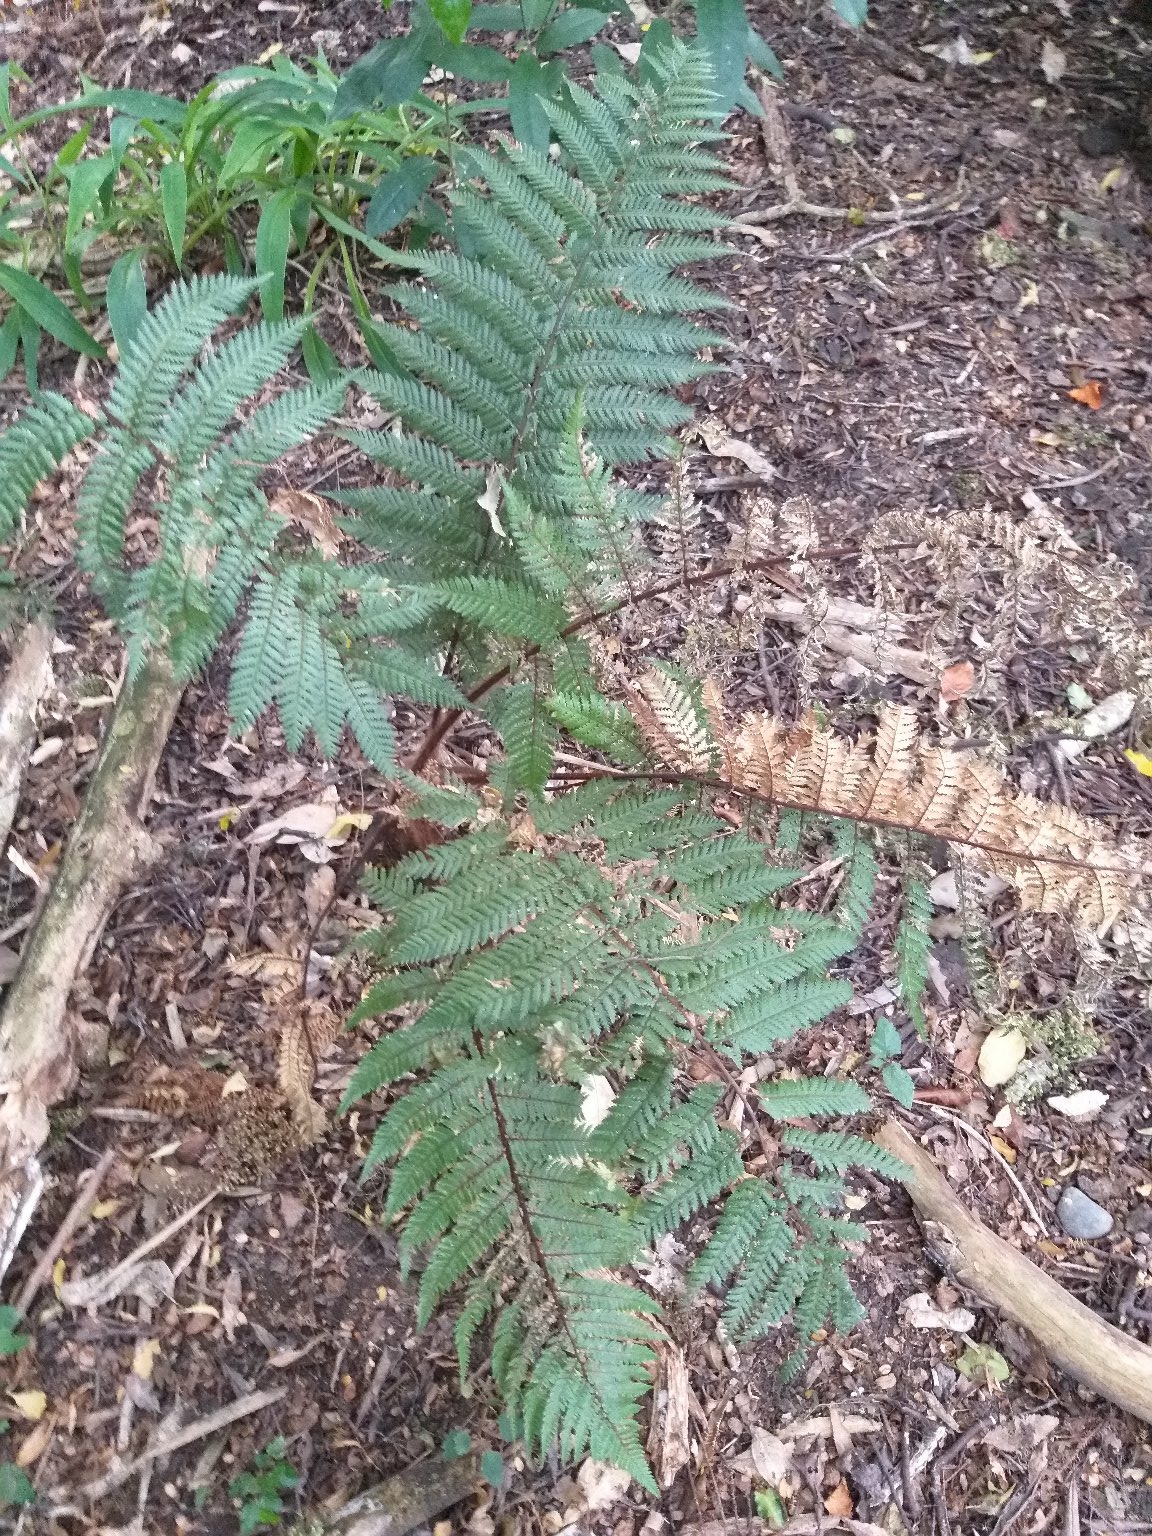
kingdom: Plantae
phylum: Tracheophyta
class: Polypodiopsida
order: Cyatheales
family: Dicksoniaceae
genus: Dicksonia
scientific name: Dicksonia squarrosa
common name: Hard treefern
